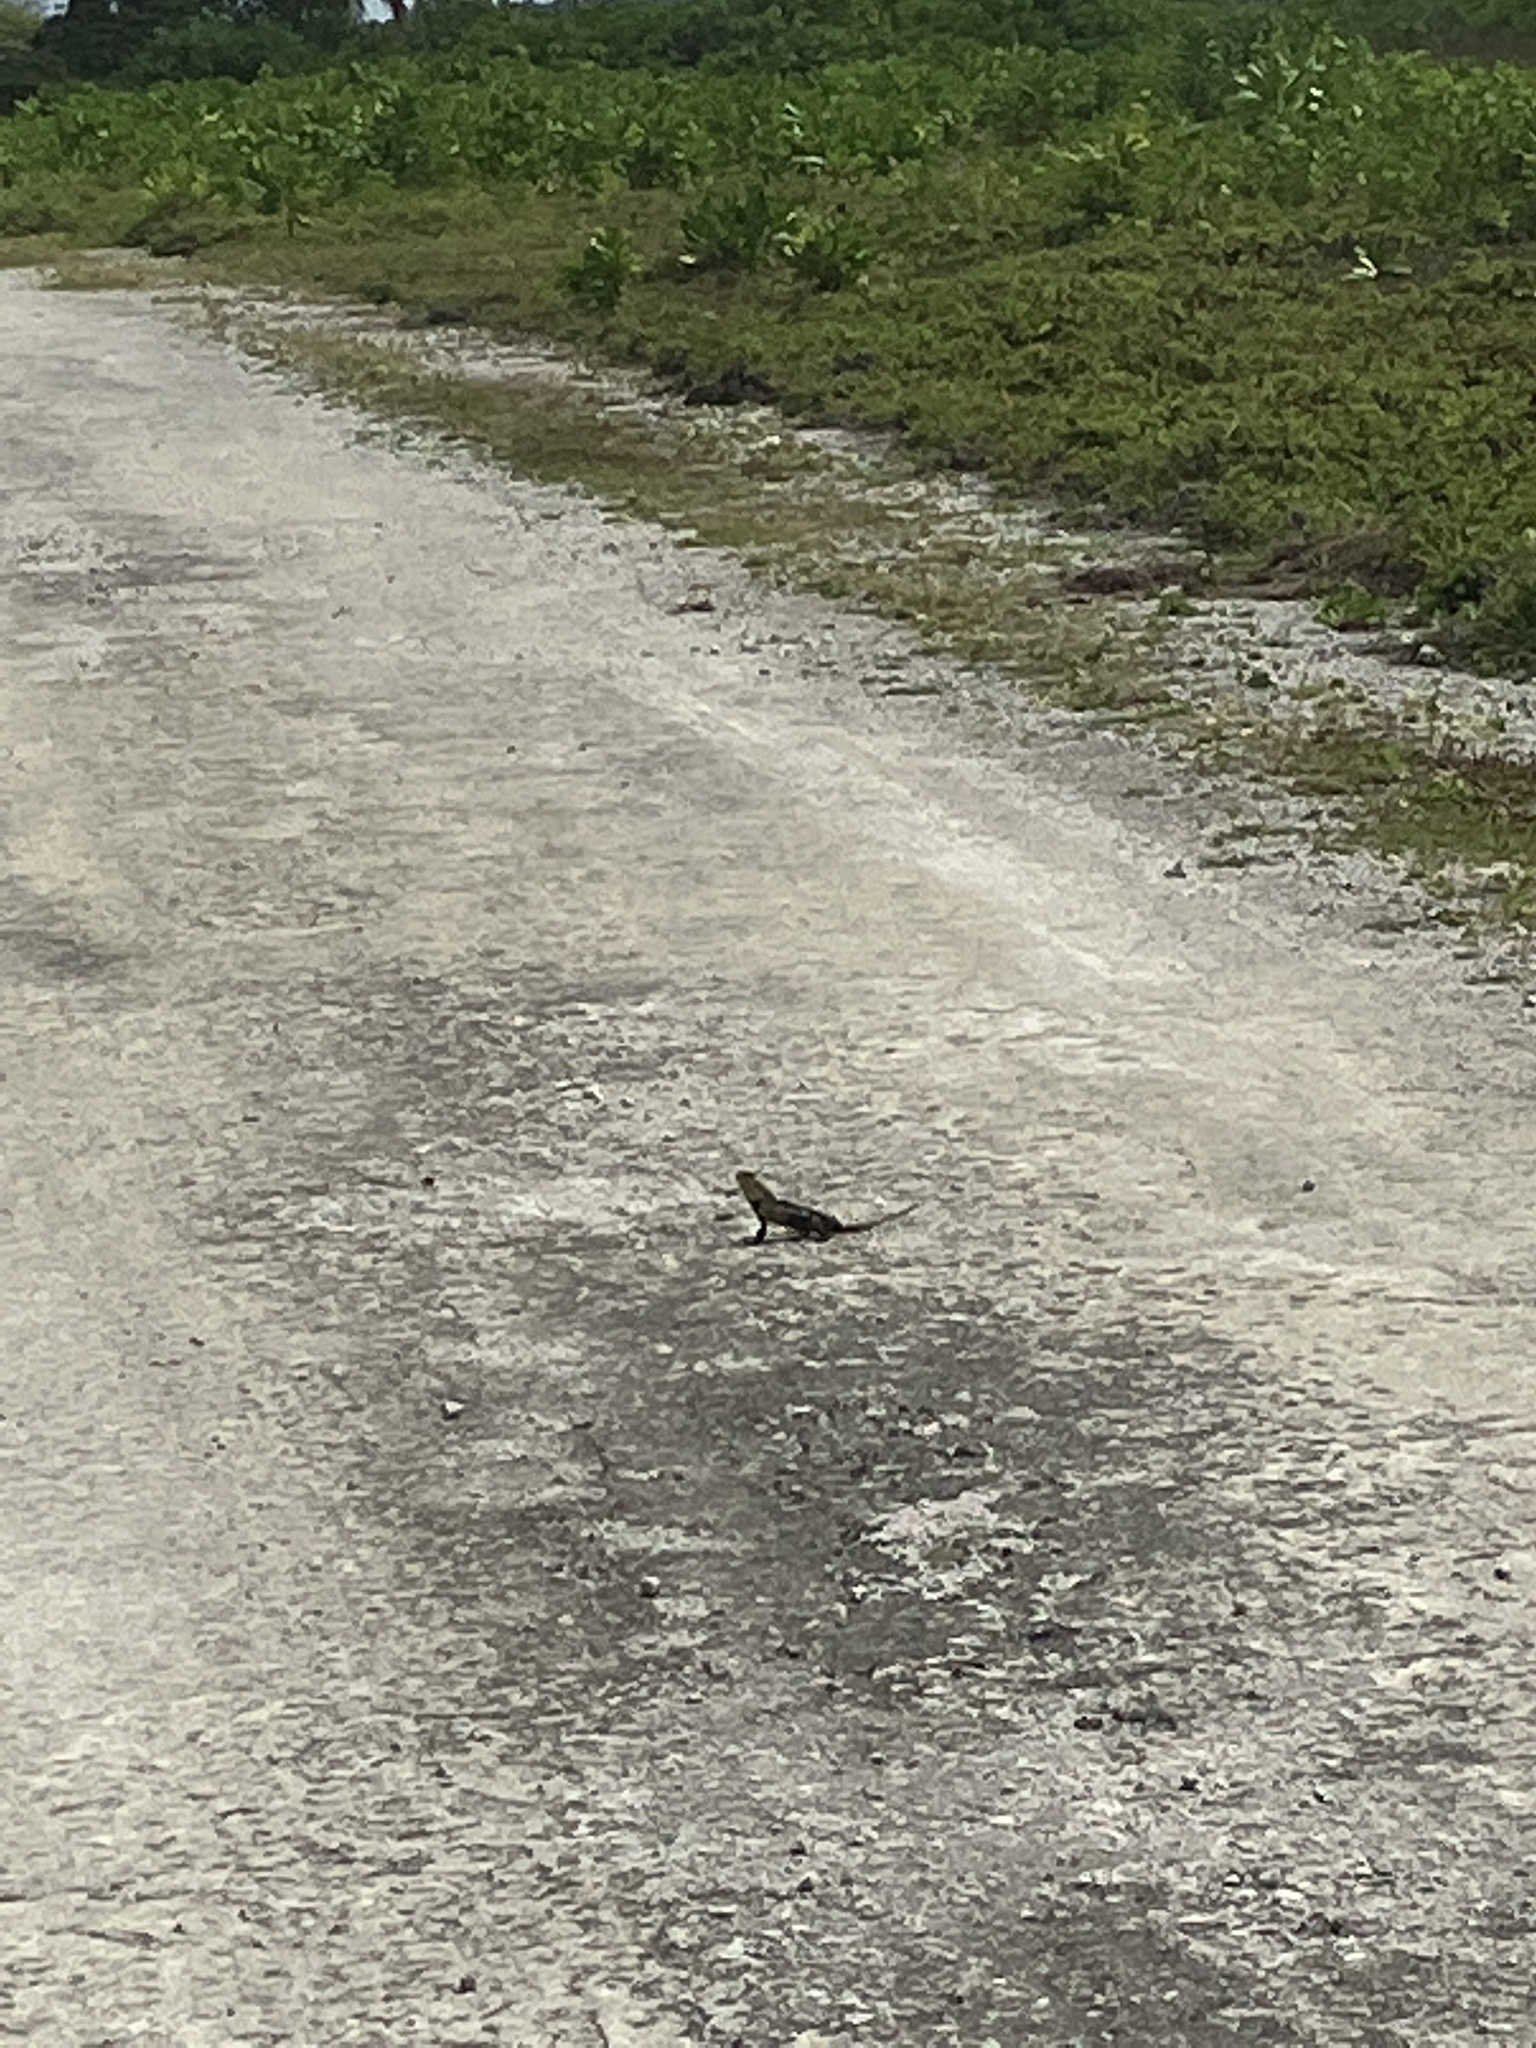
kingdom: Animalia
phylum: Chordata
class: Squamata
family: Agamidae
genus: Calotes
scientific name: Calotes versicolor
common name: Oriental garden lizard
